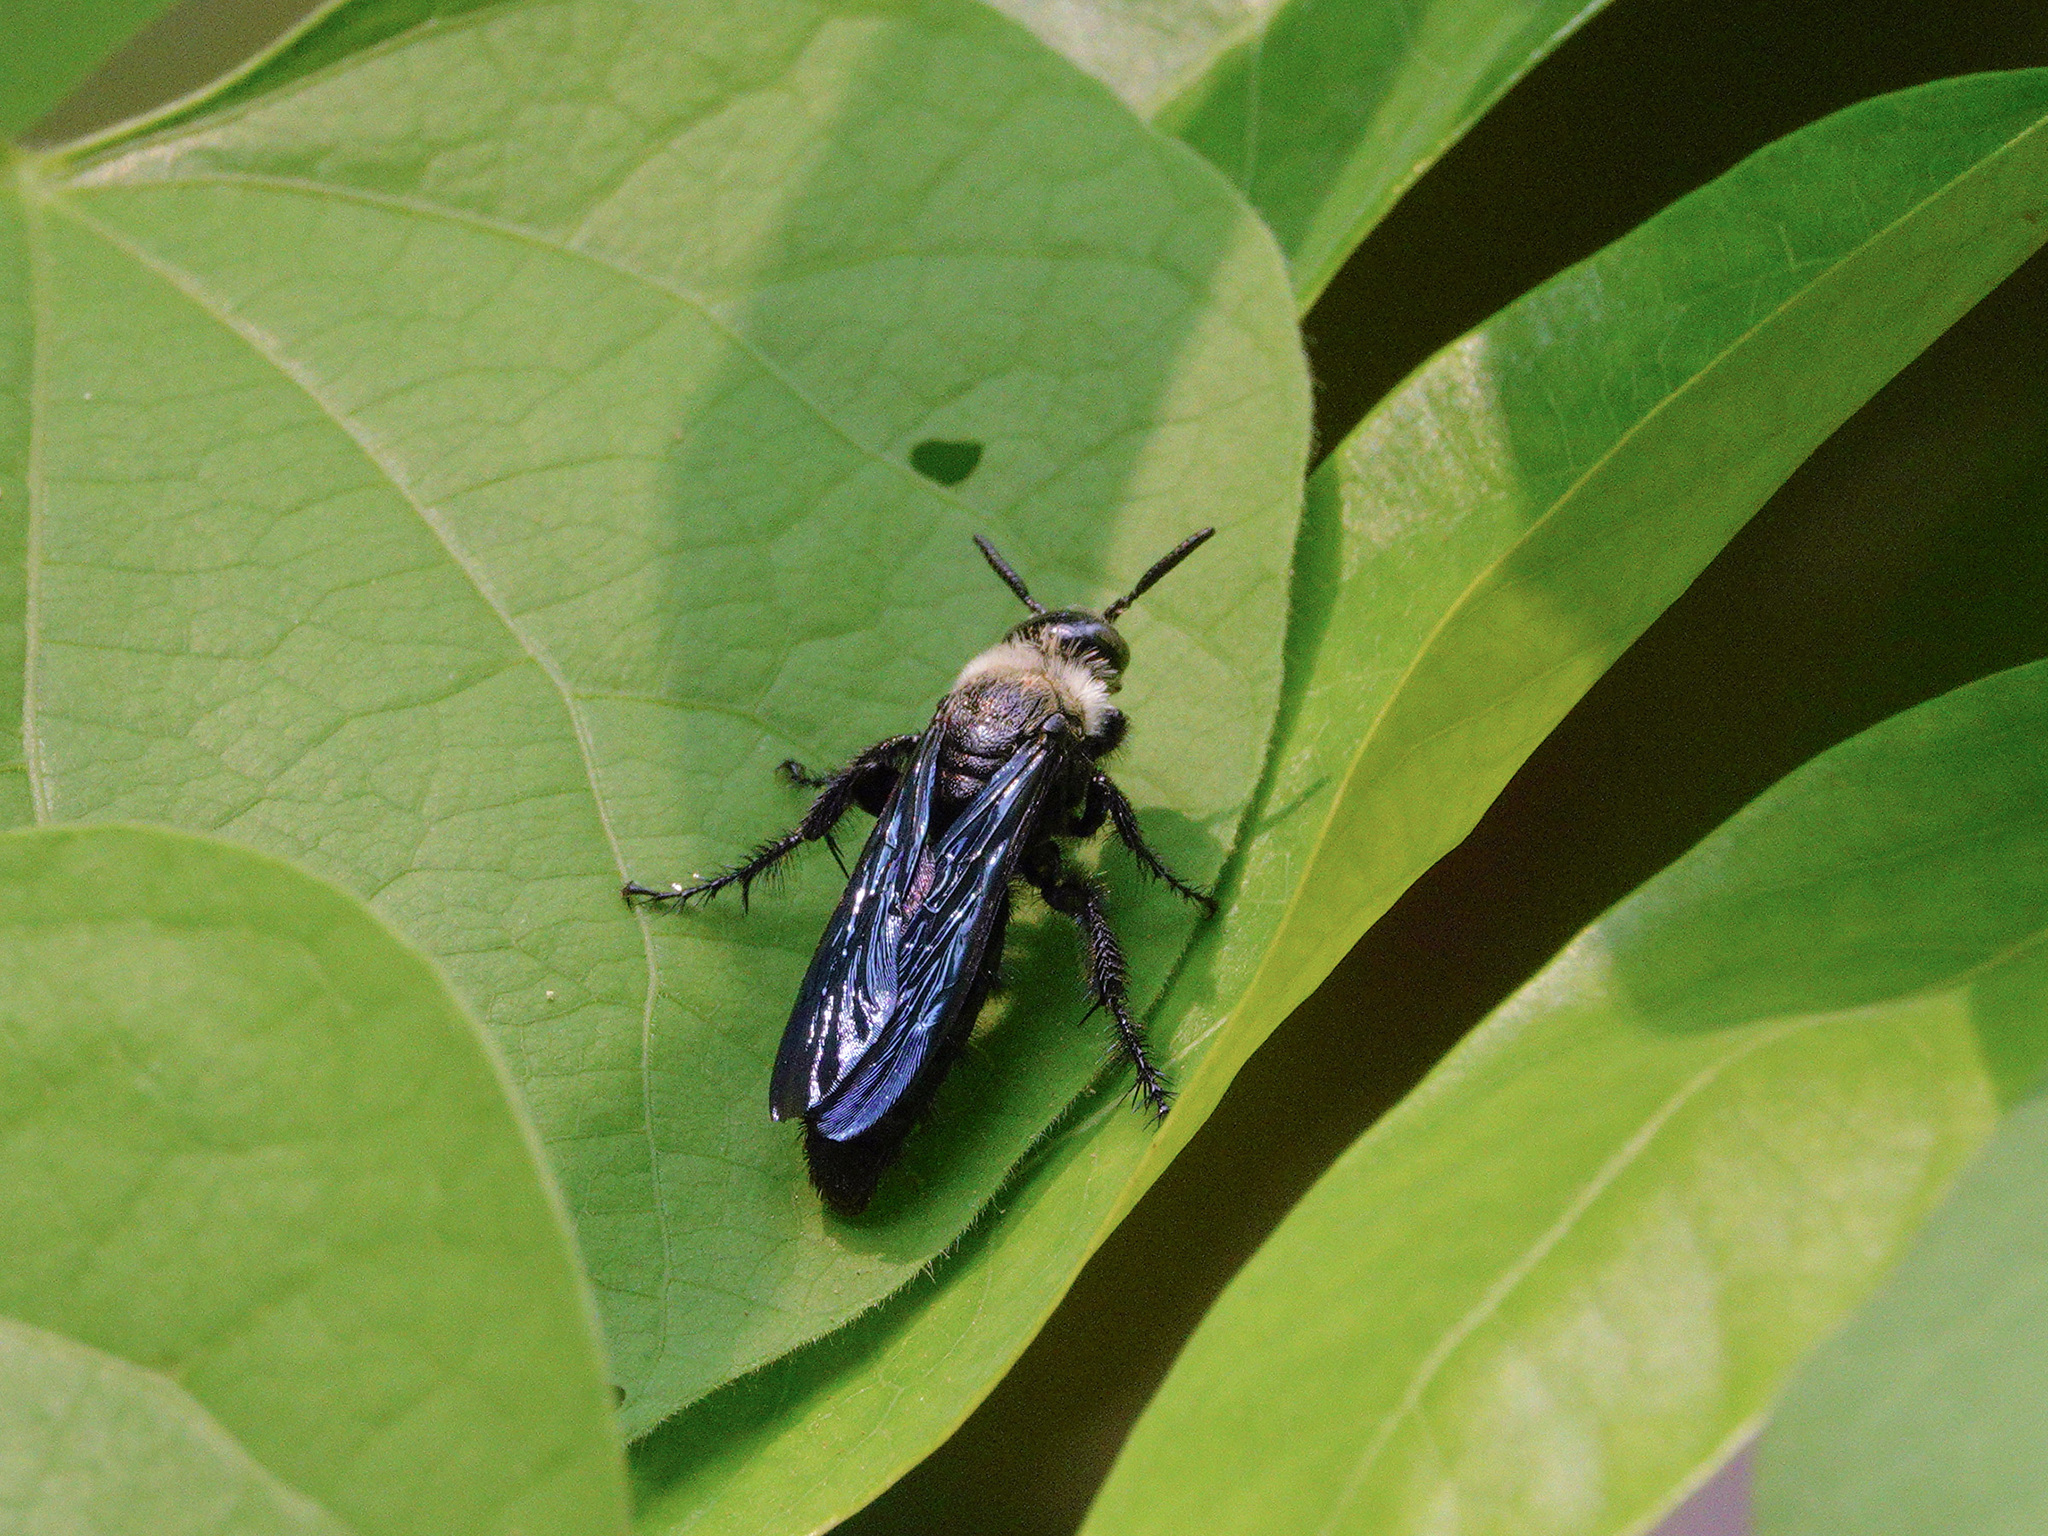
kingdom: Animalia
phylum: Arthropoda
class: Insecta
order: Hymenoptera
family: Scoliidae
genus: Campsomeriella
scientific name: Campsomeriella collaris
